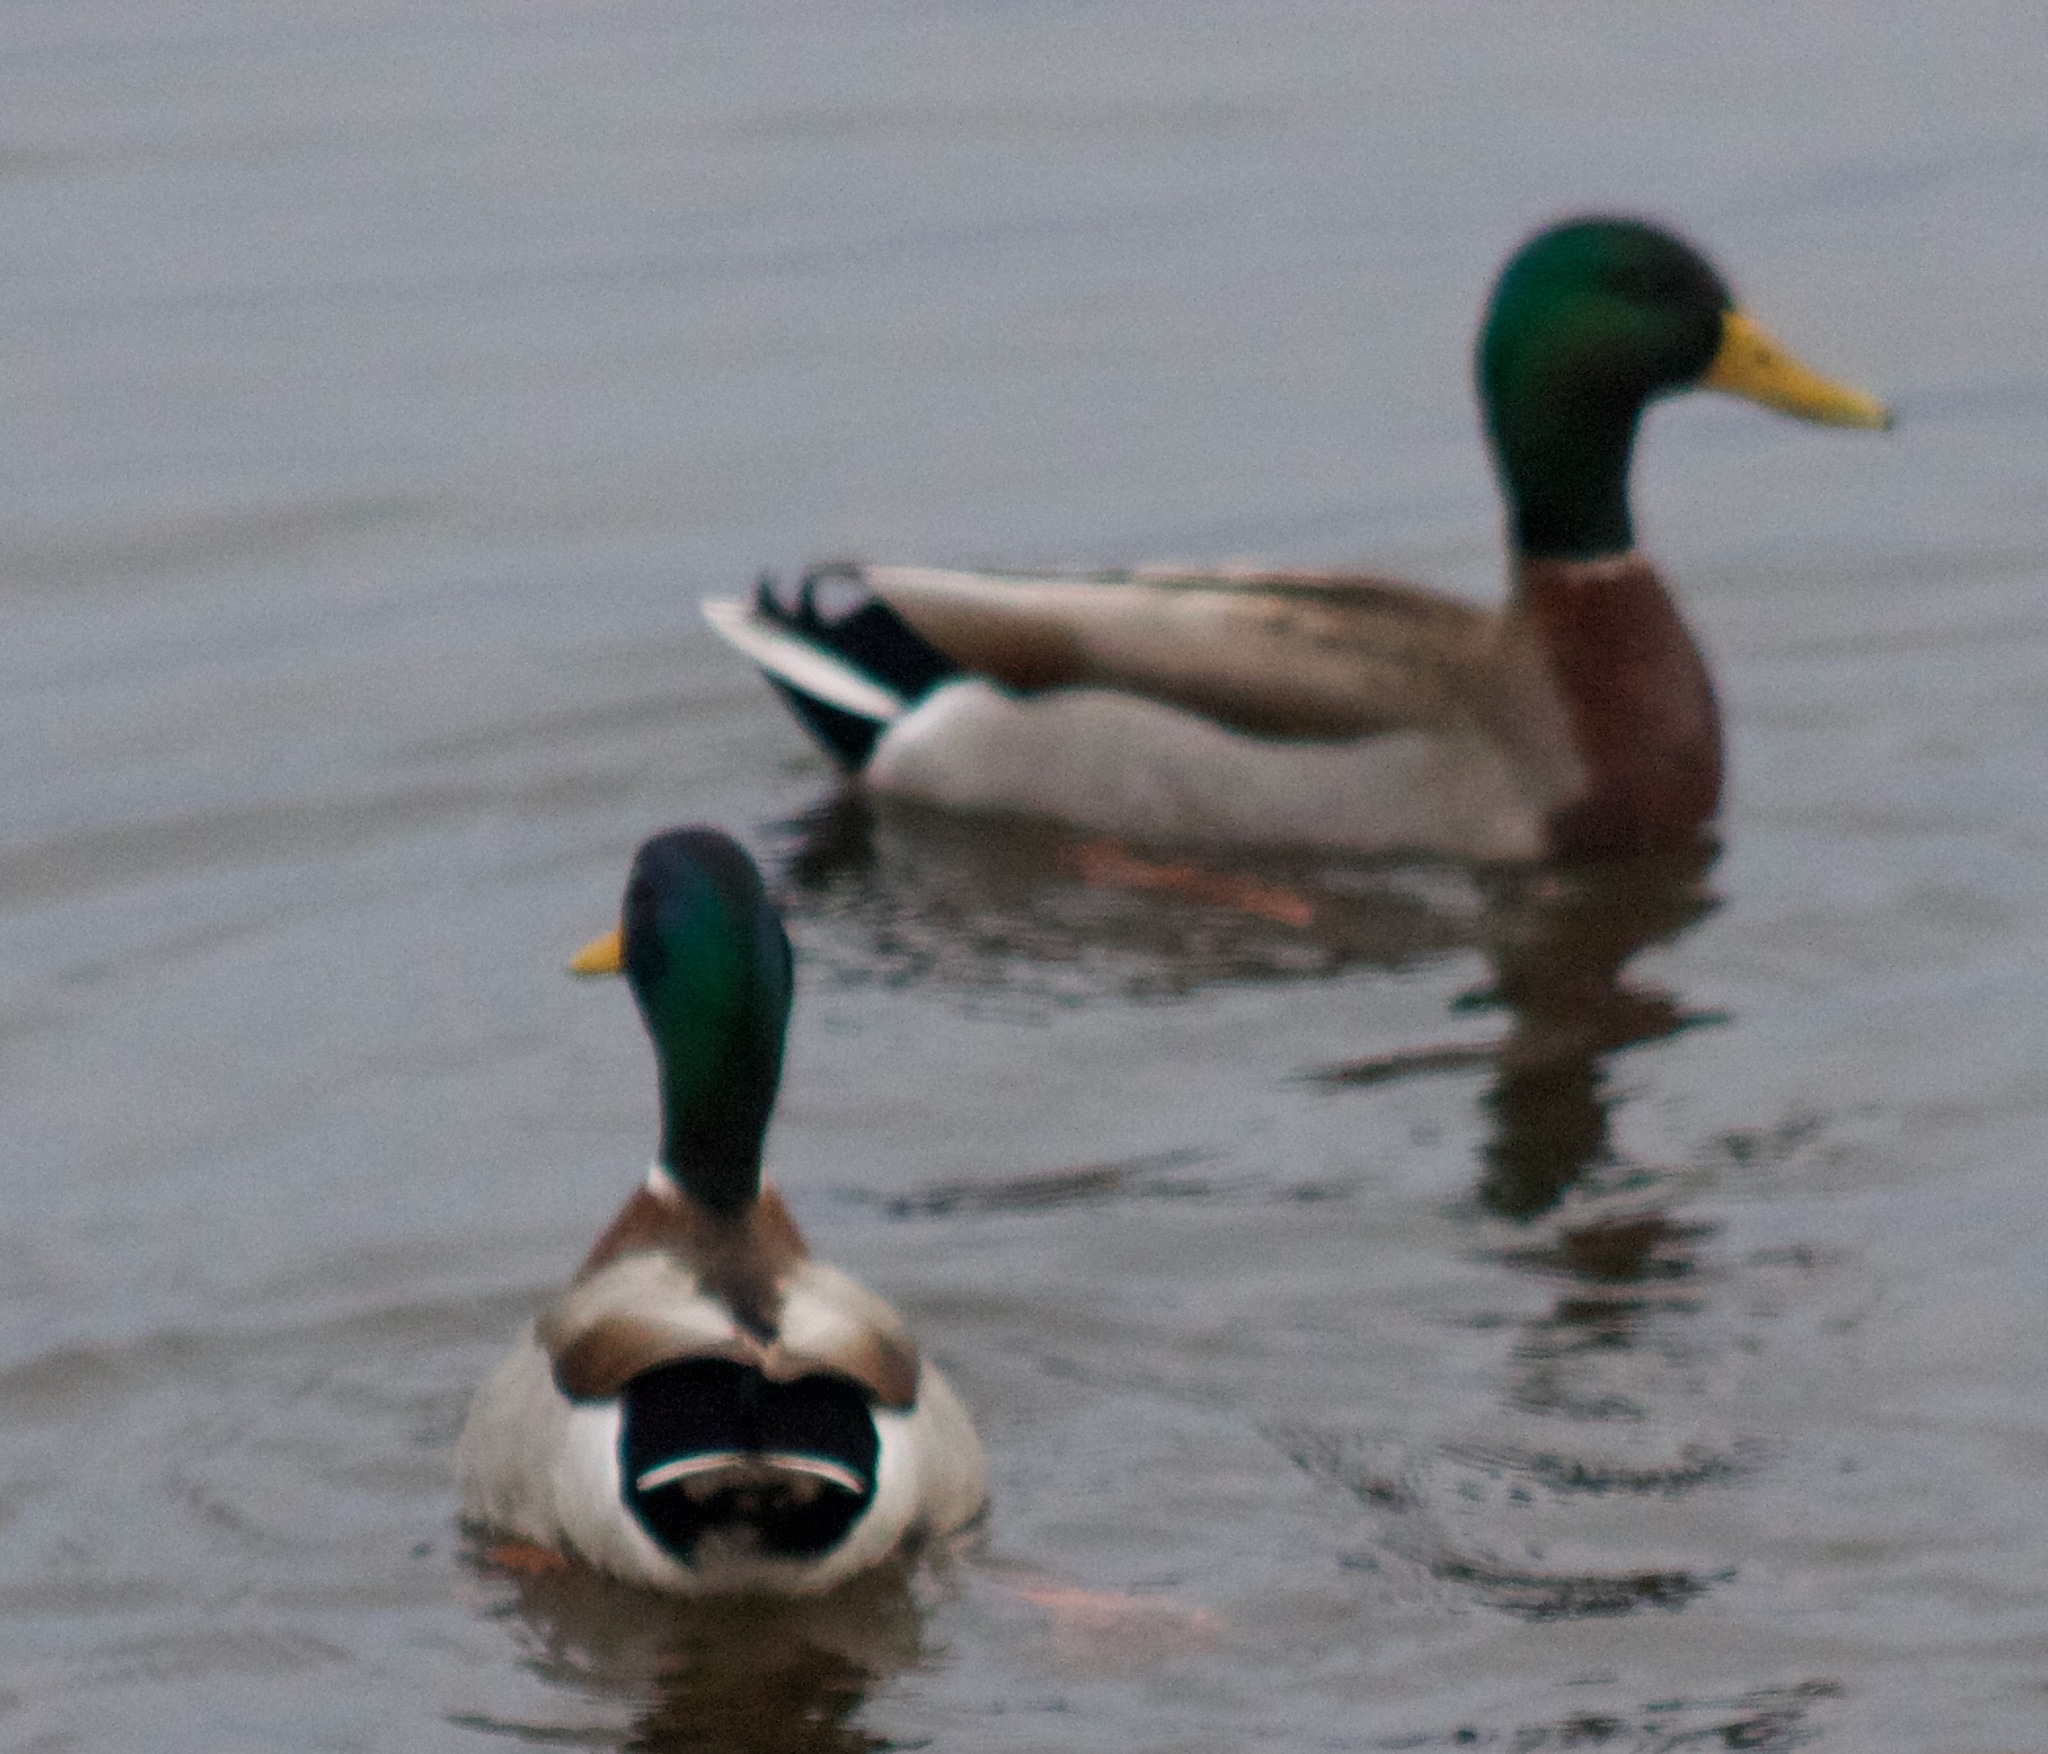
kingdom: Animalia
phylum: Chordata
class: Aves
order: Anseriformes
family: Anatidae
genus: Anas
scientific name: Anas platyrhynchos
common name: Mallard
